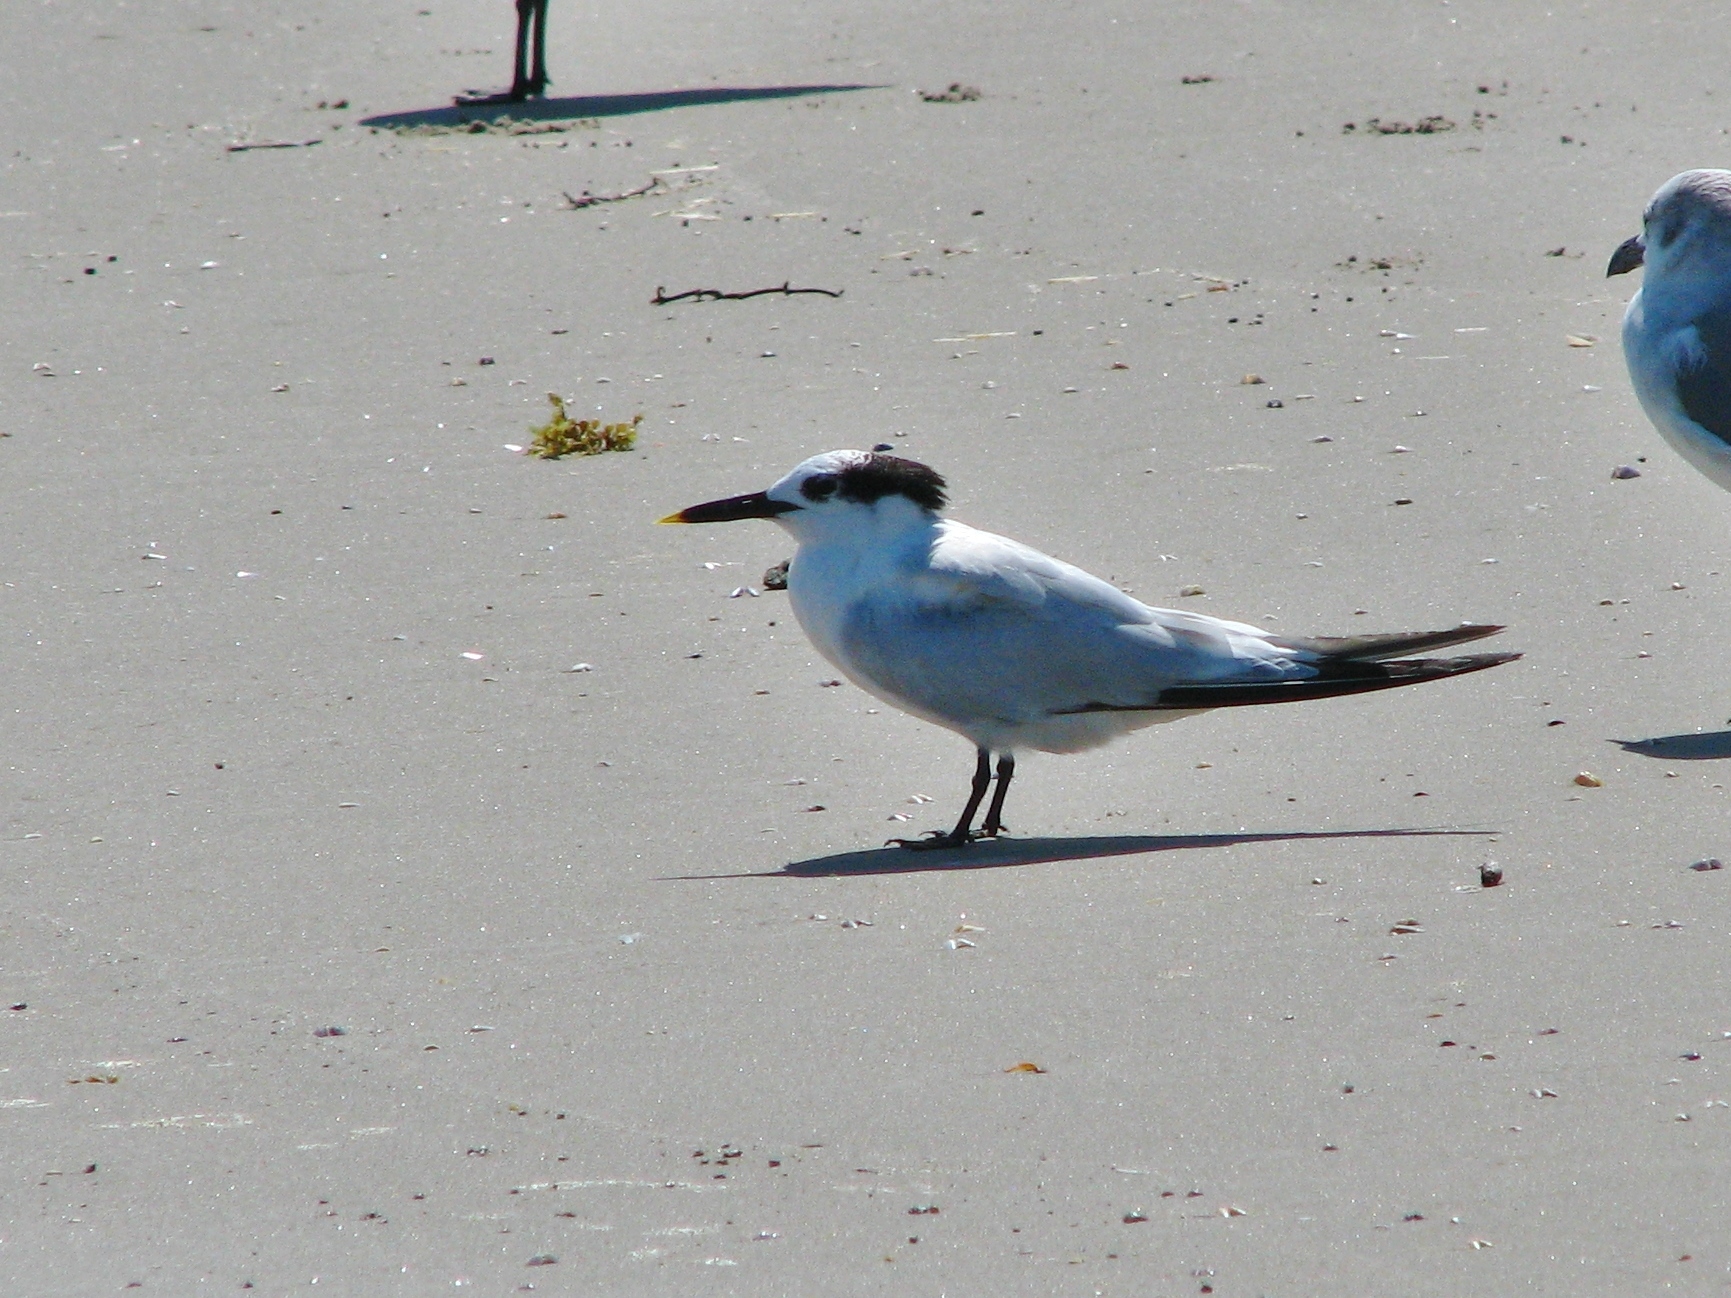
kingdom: Animalia
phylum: Chordata
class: Aves
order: Charadriiformes
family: Laridae
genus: Thalasseus
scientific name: Thalasseus sandvicensis
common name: Sandwich tern
